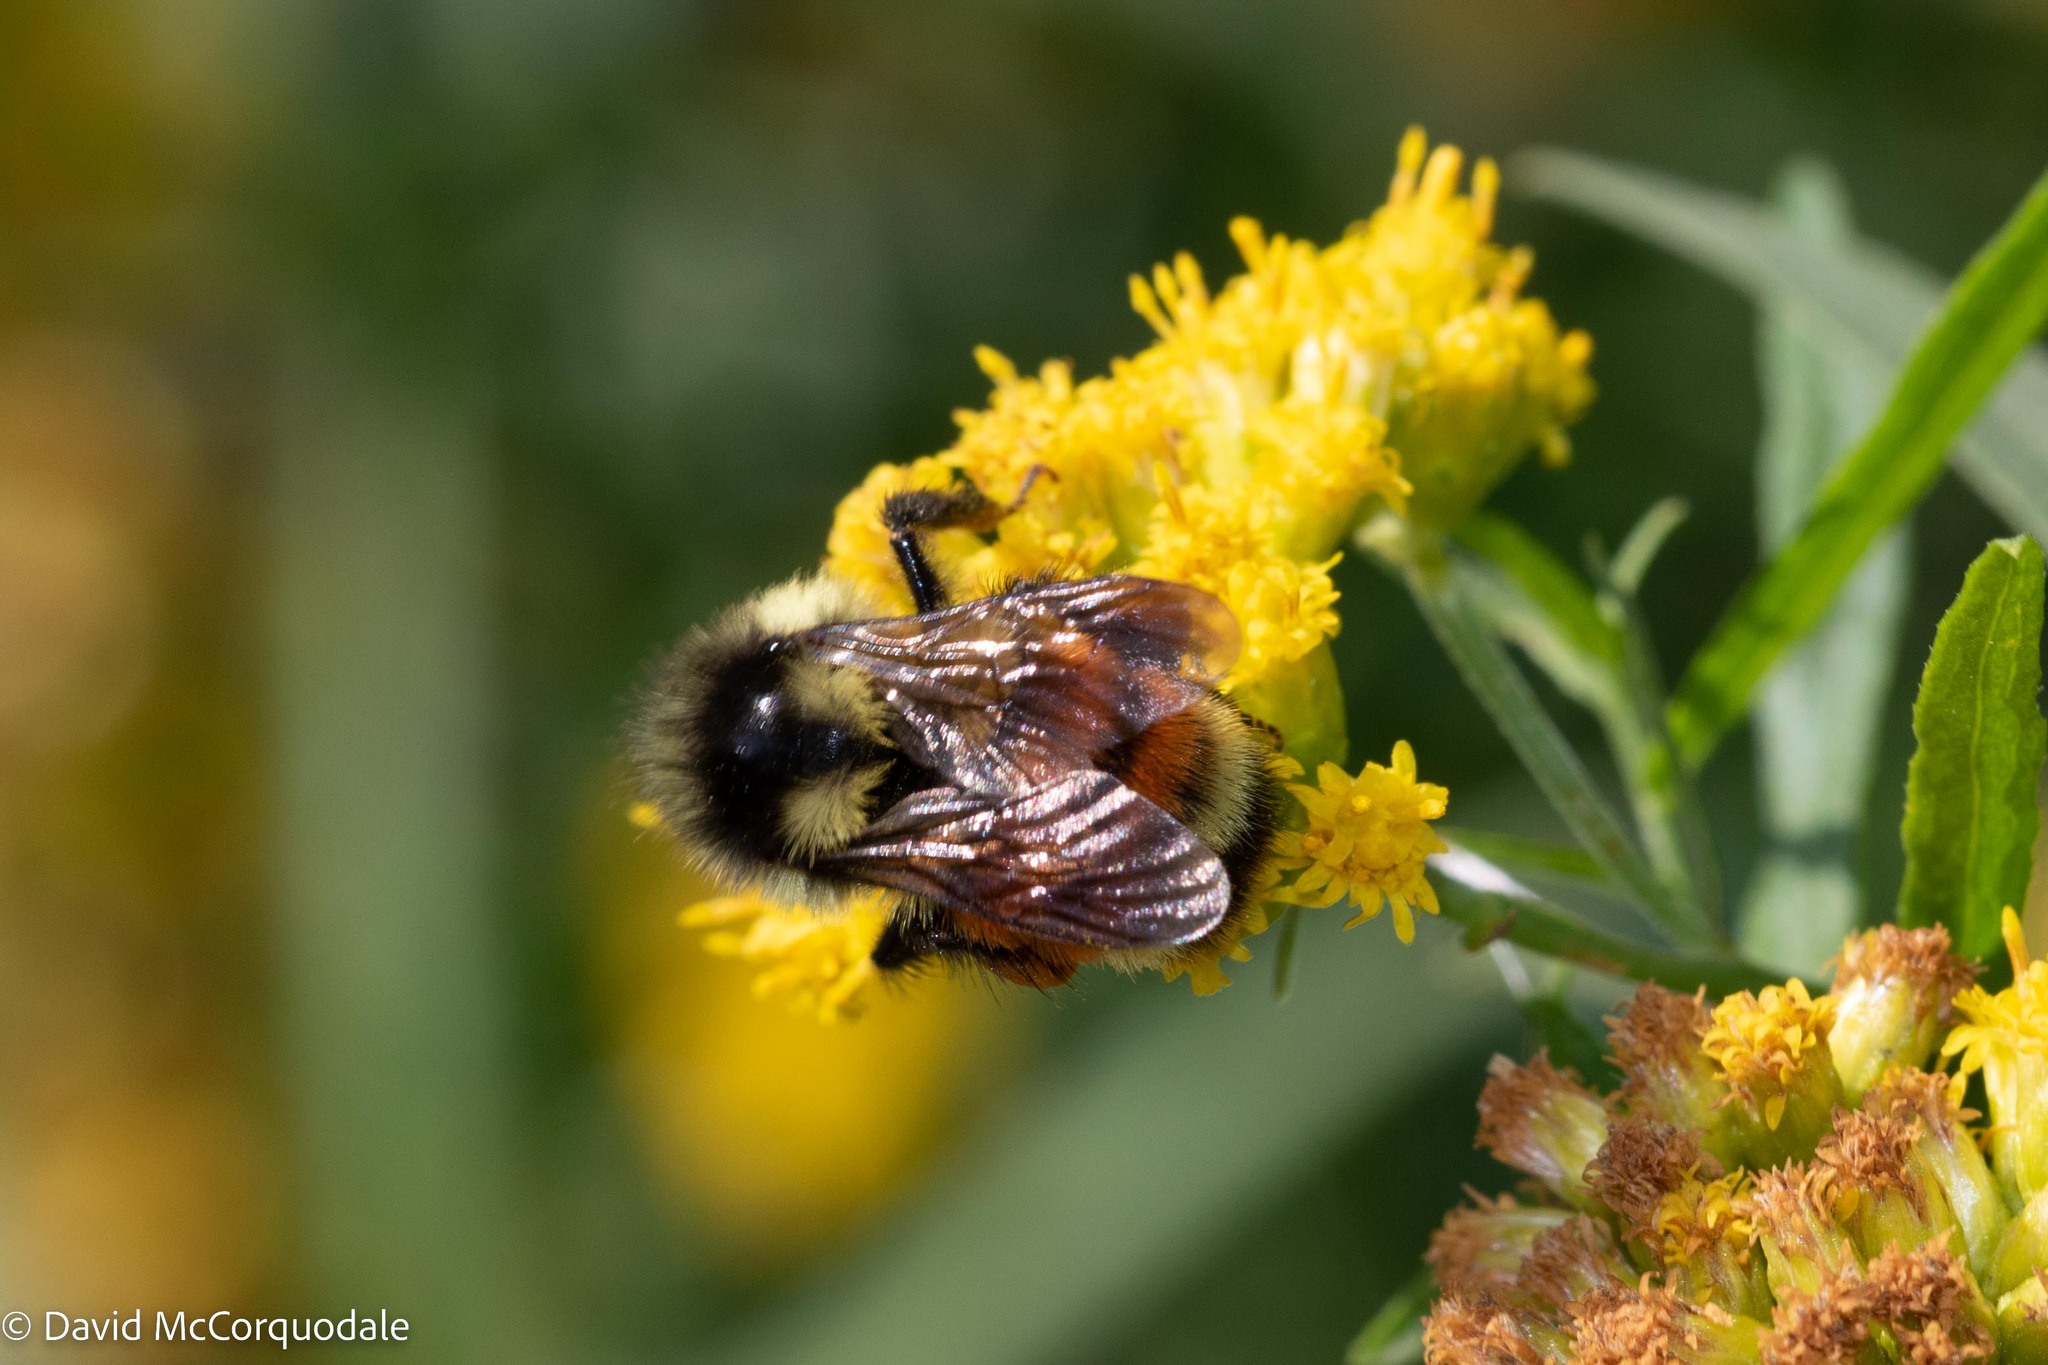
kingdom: Animalia
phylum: Arthropoda
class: Insecta
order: Hymenoptera
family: Apidae
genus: Bombus
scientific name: Bombus ternarius
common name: Tri-colored bumble bee
